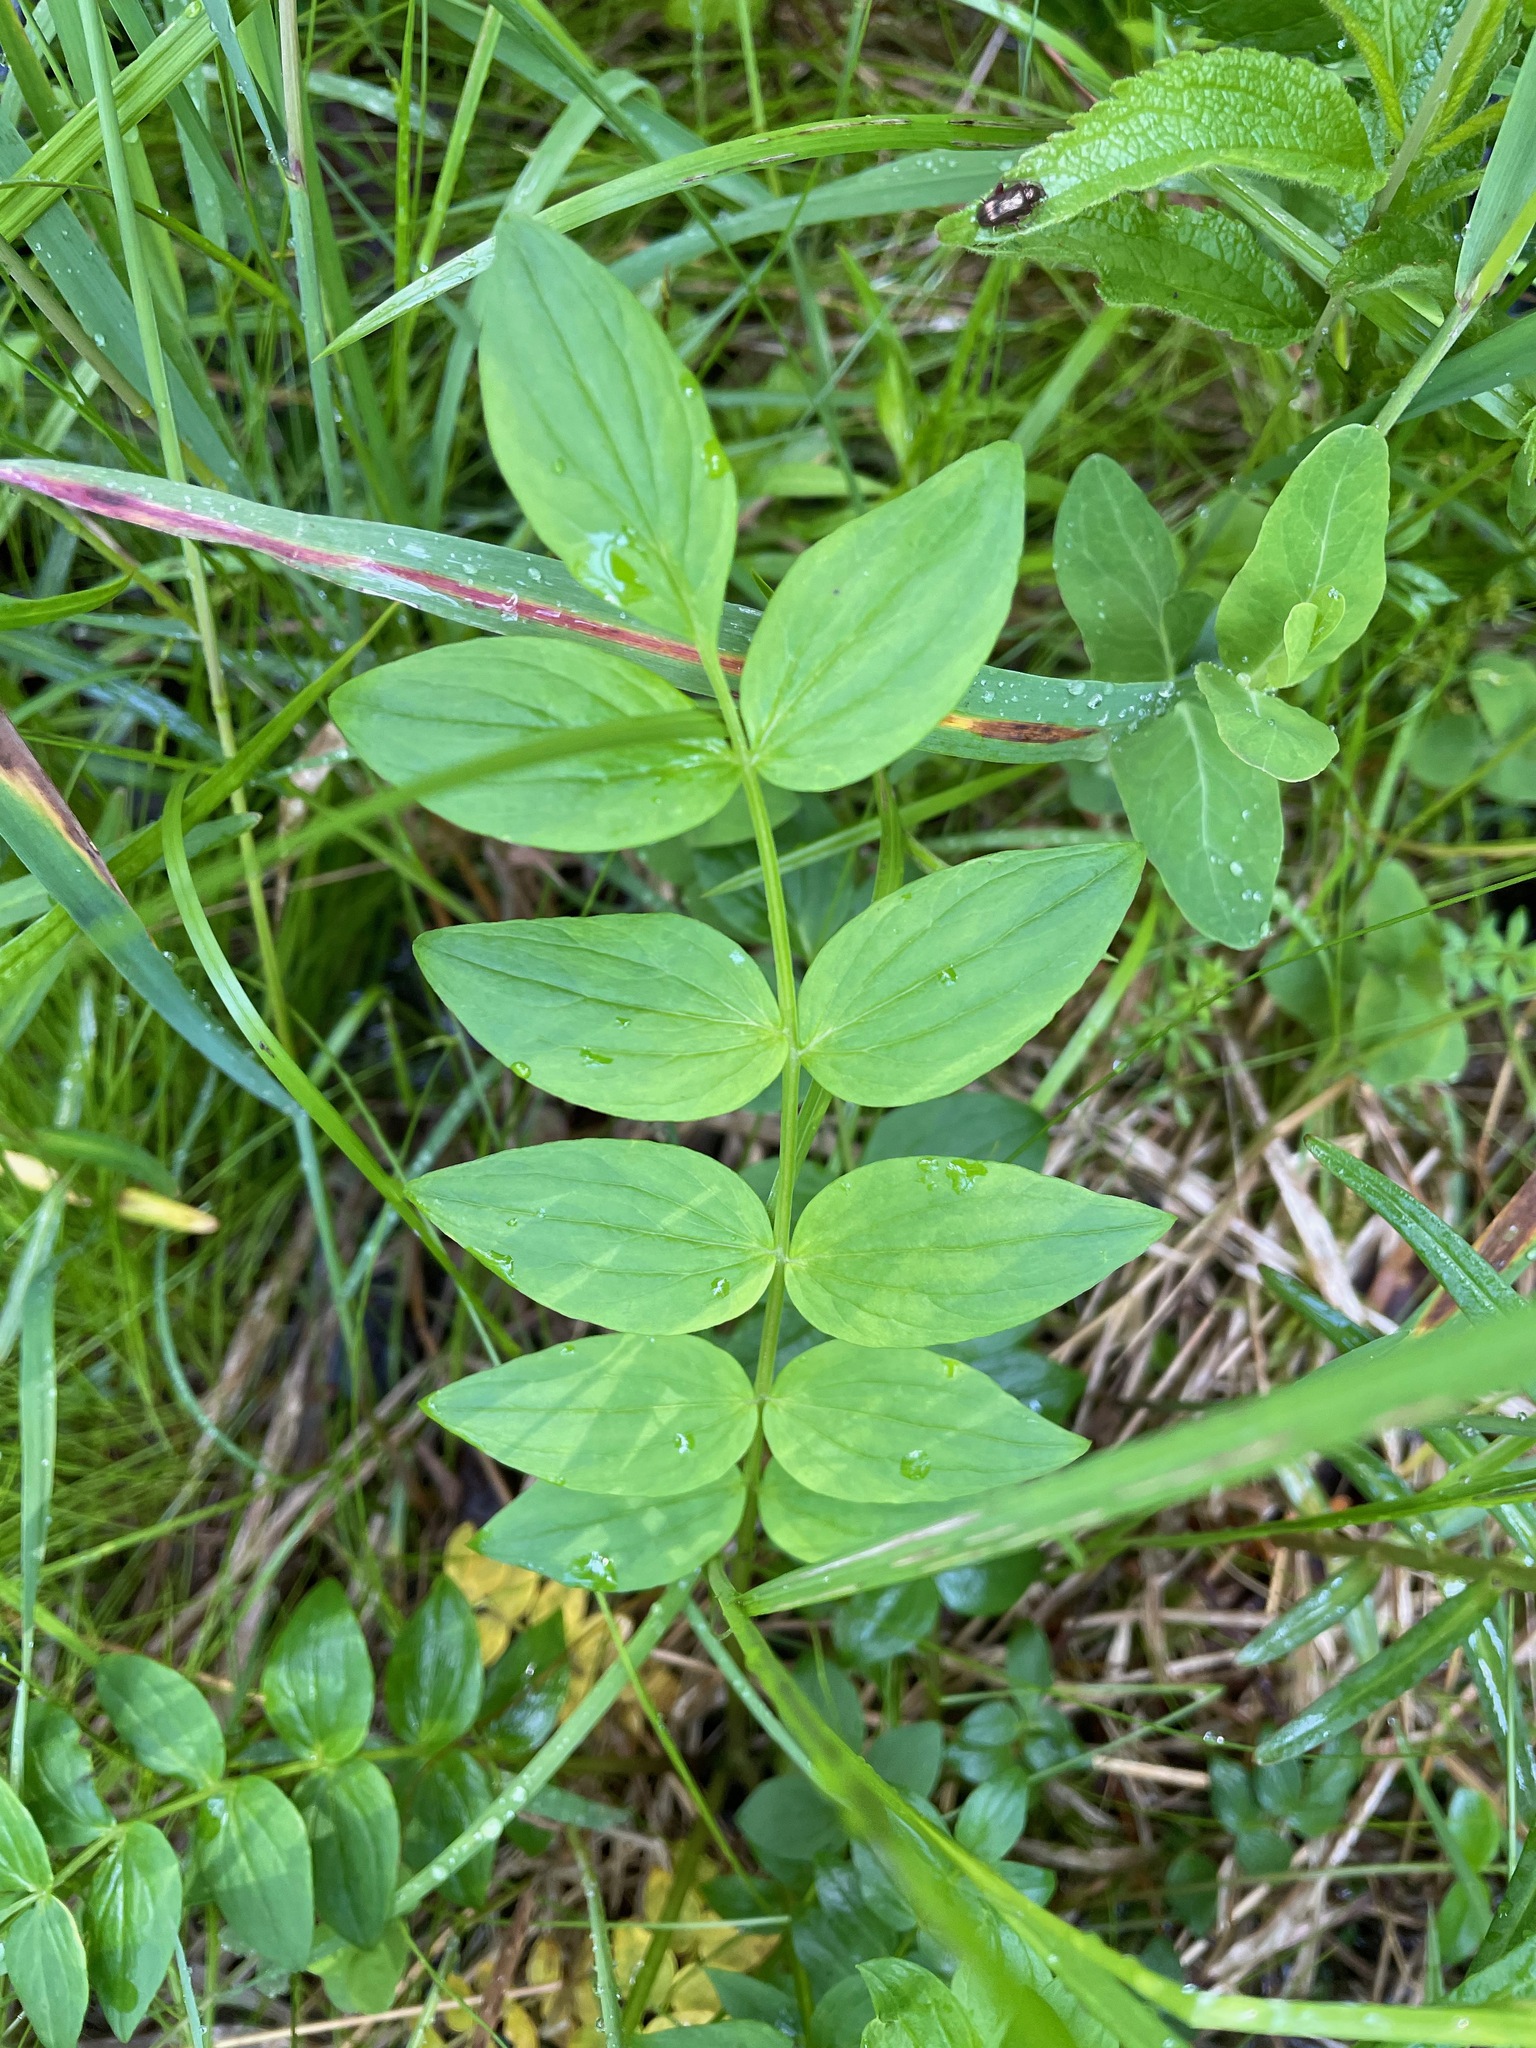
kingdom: Plantae
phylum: Tracheophyta
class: Magnoliopsida
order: Ericales
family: Polemoniaceae
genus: Polemonium
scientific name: Polemonium vanbruntiae
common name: Bog jacob's-ladder
